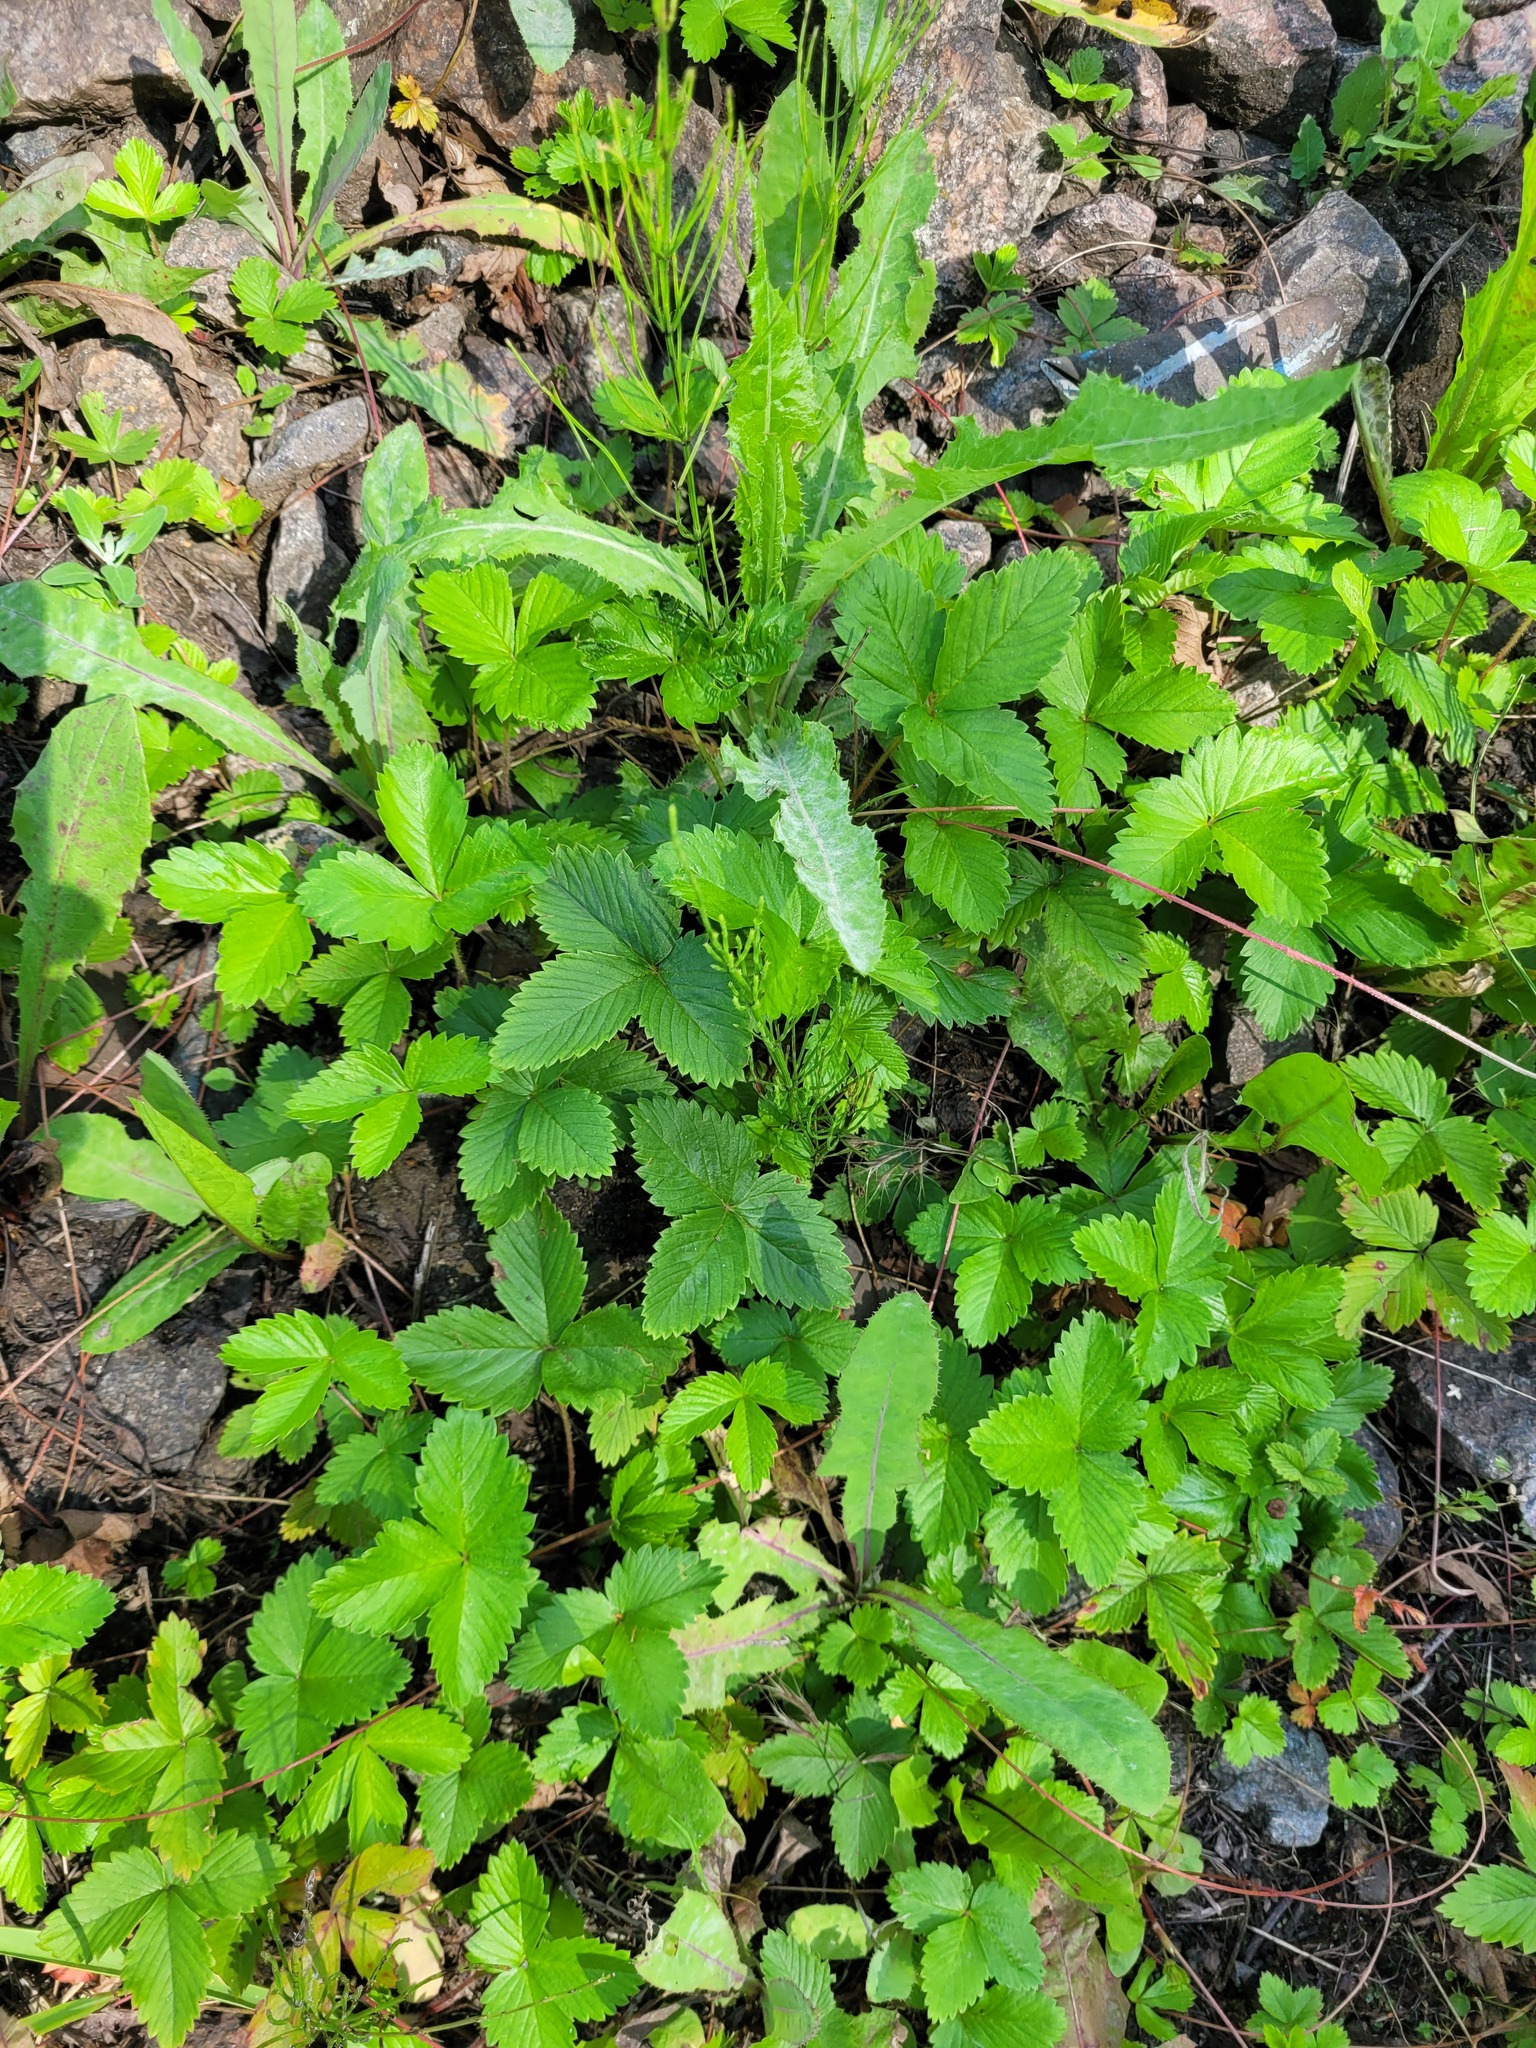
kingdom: Plantae
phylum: Tracheophyta
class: Magnoliopsida
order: Rosales
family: Rosaceae
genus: Fragaria
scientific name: Fragaria vesca
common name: Wild strawberry
